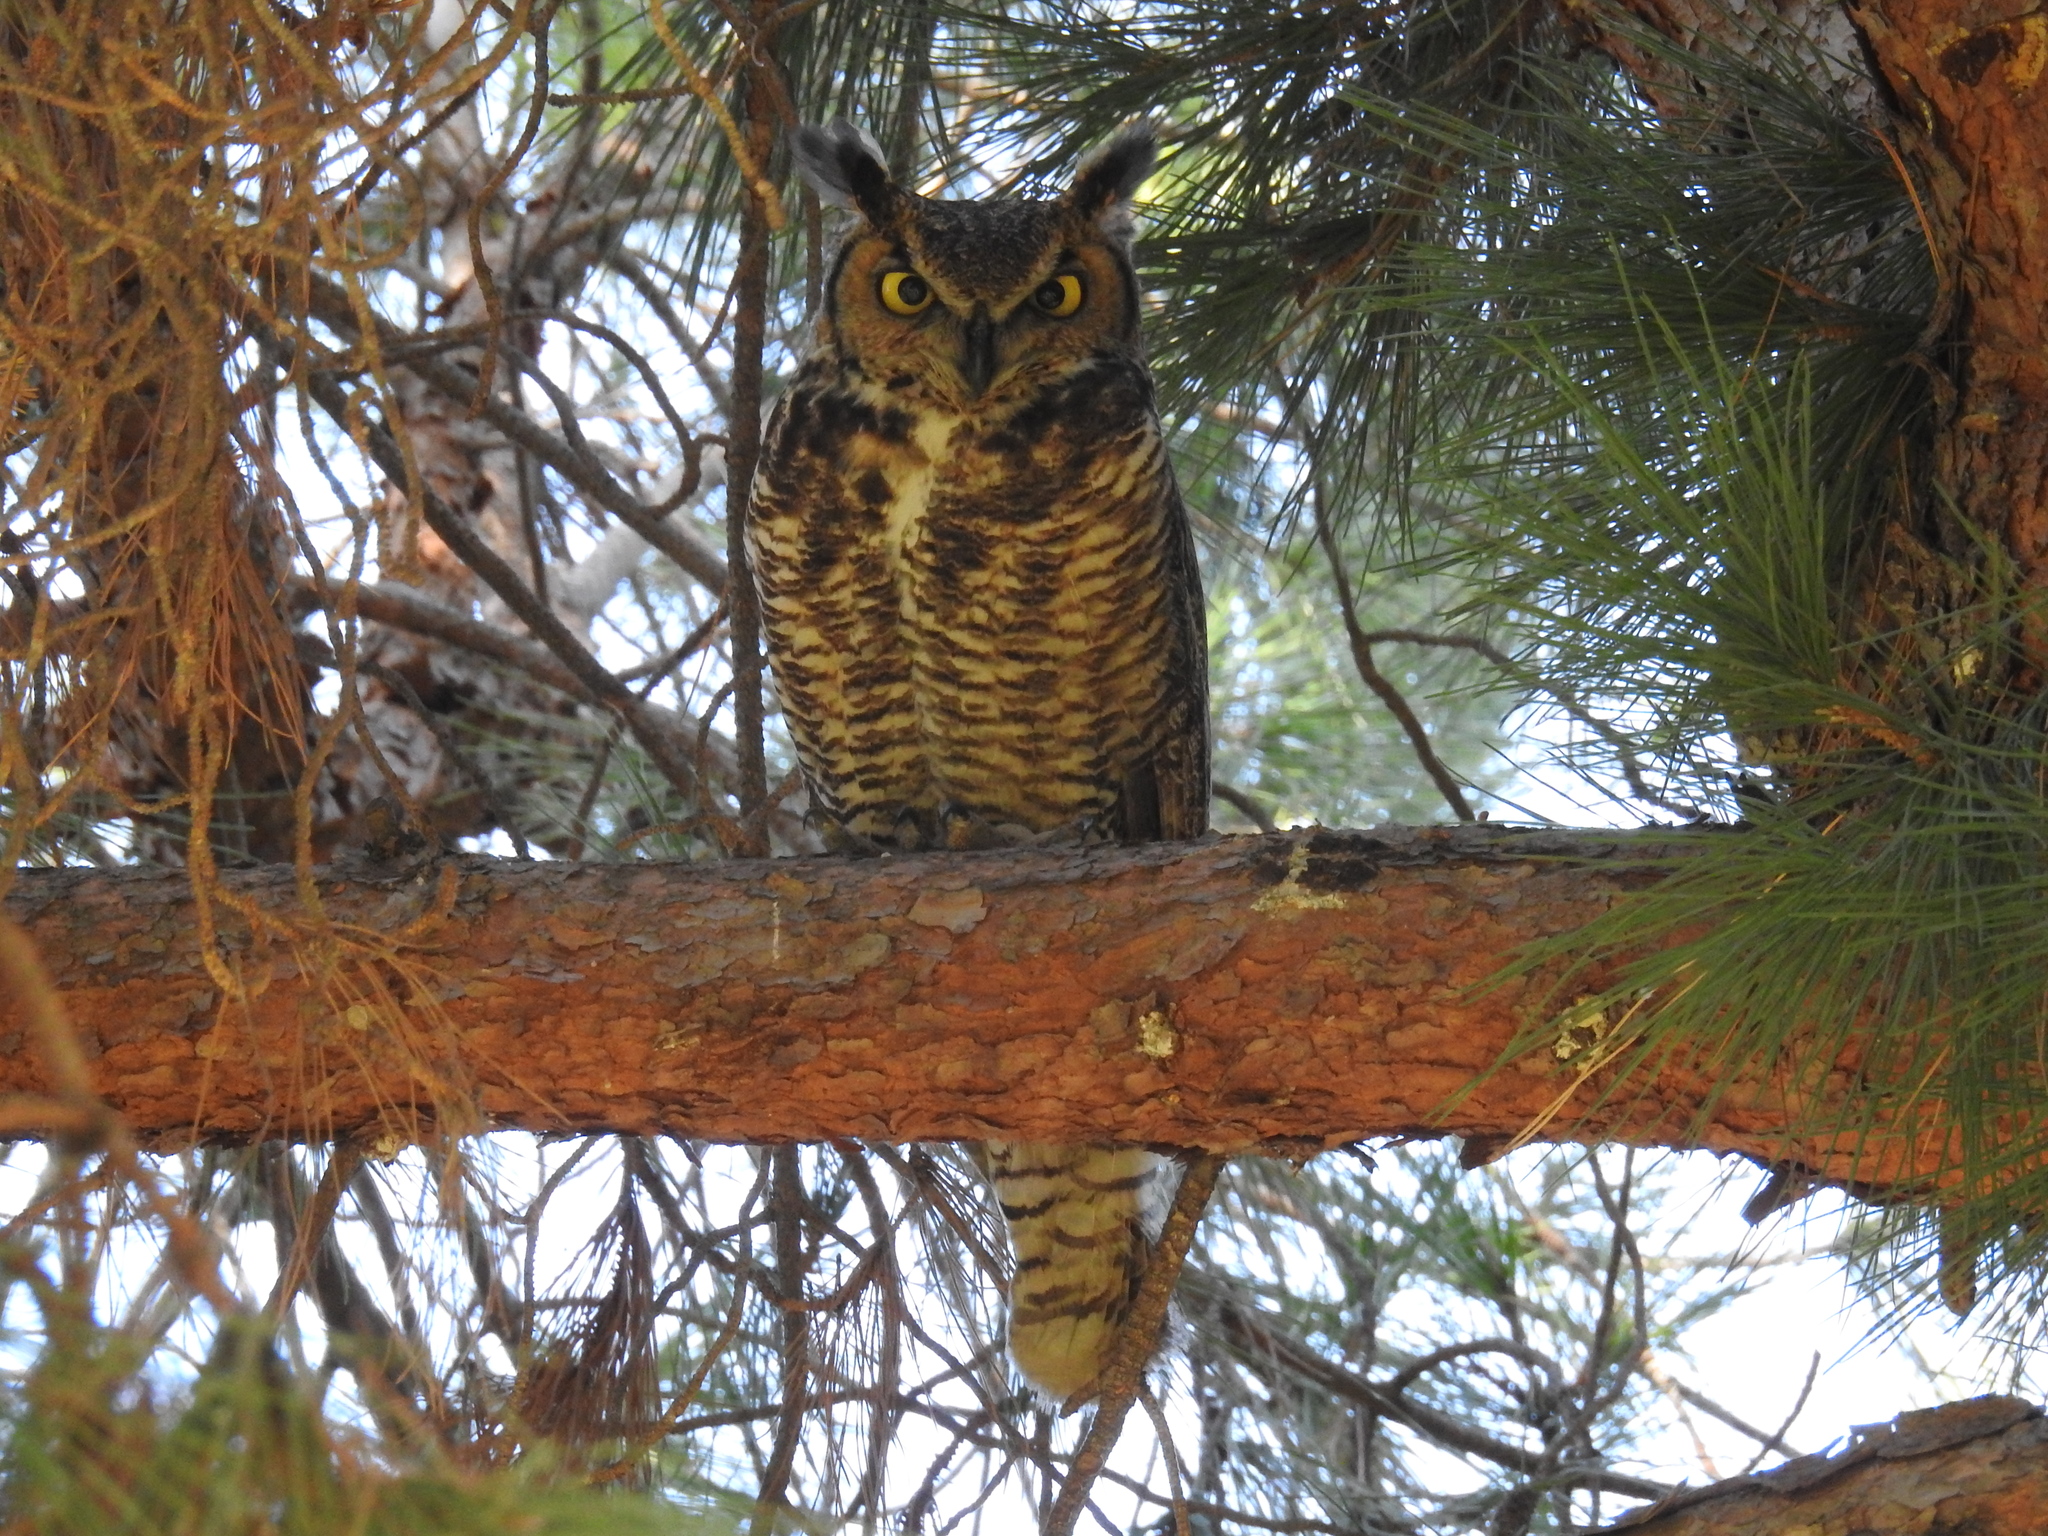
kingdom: Animalia
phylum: Chordata
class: Aves
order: Strigiformes
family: Strigidae
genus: Bubo
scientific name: Bubo virginianus
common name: Great horned owl
